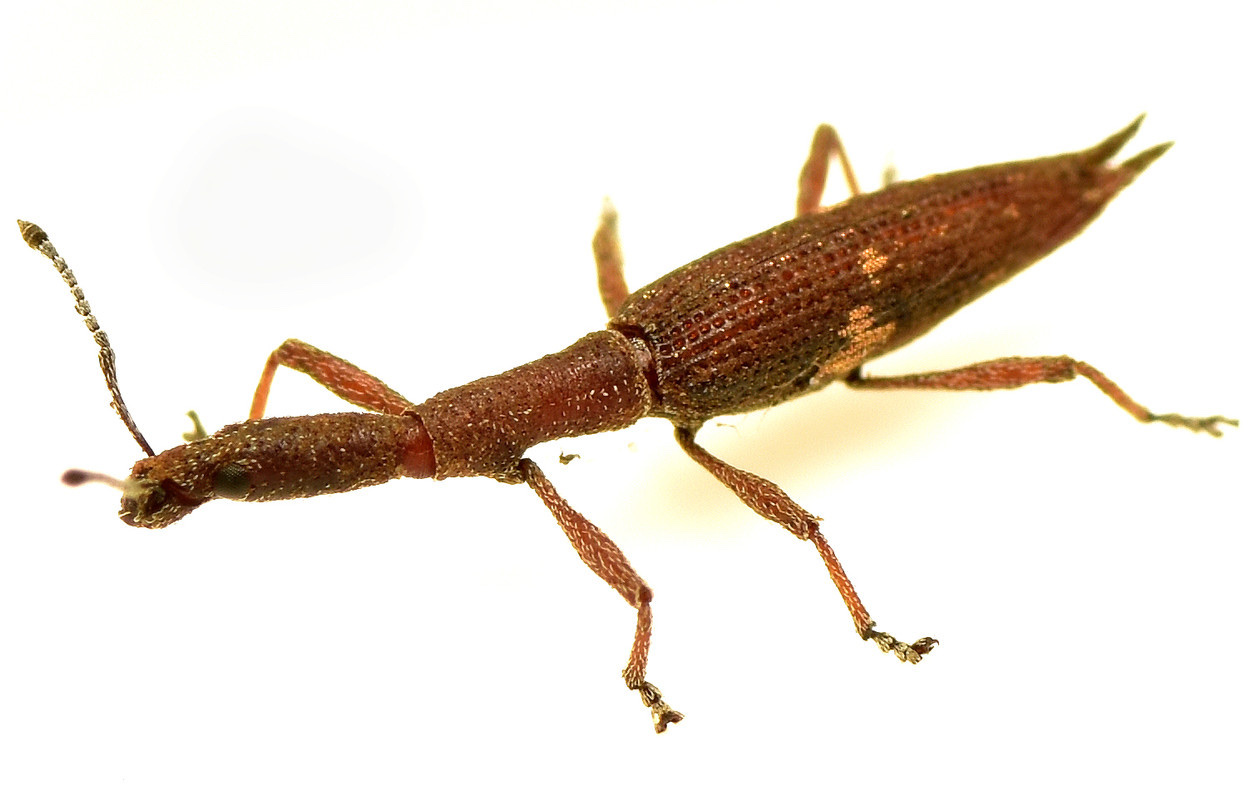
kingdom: Animalia
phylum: Arthropoda
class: Insecta
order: Coleoptera
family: Curculionidae
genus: Rhadinosomus
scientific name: Rhadinosomus lacordairei
